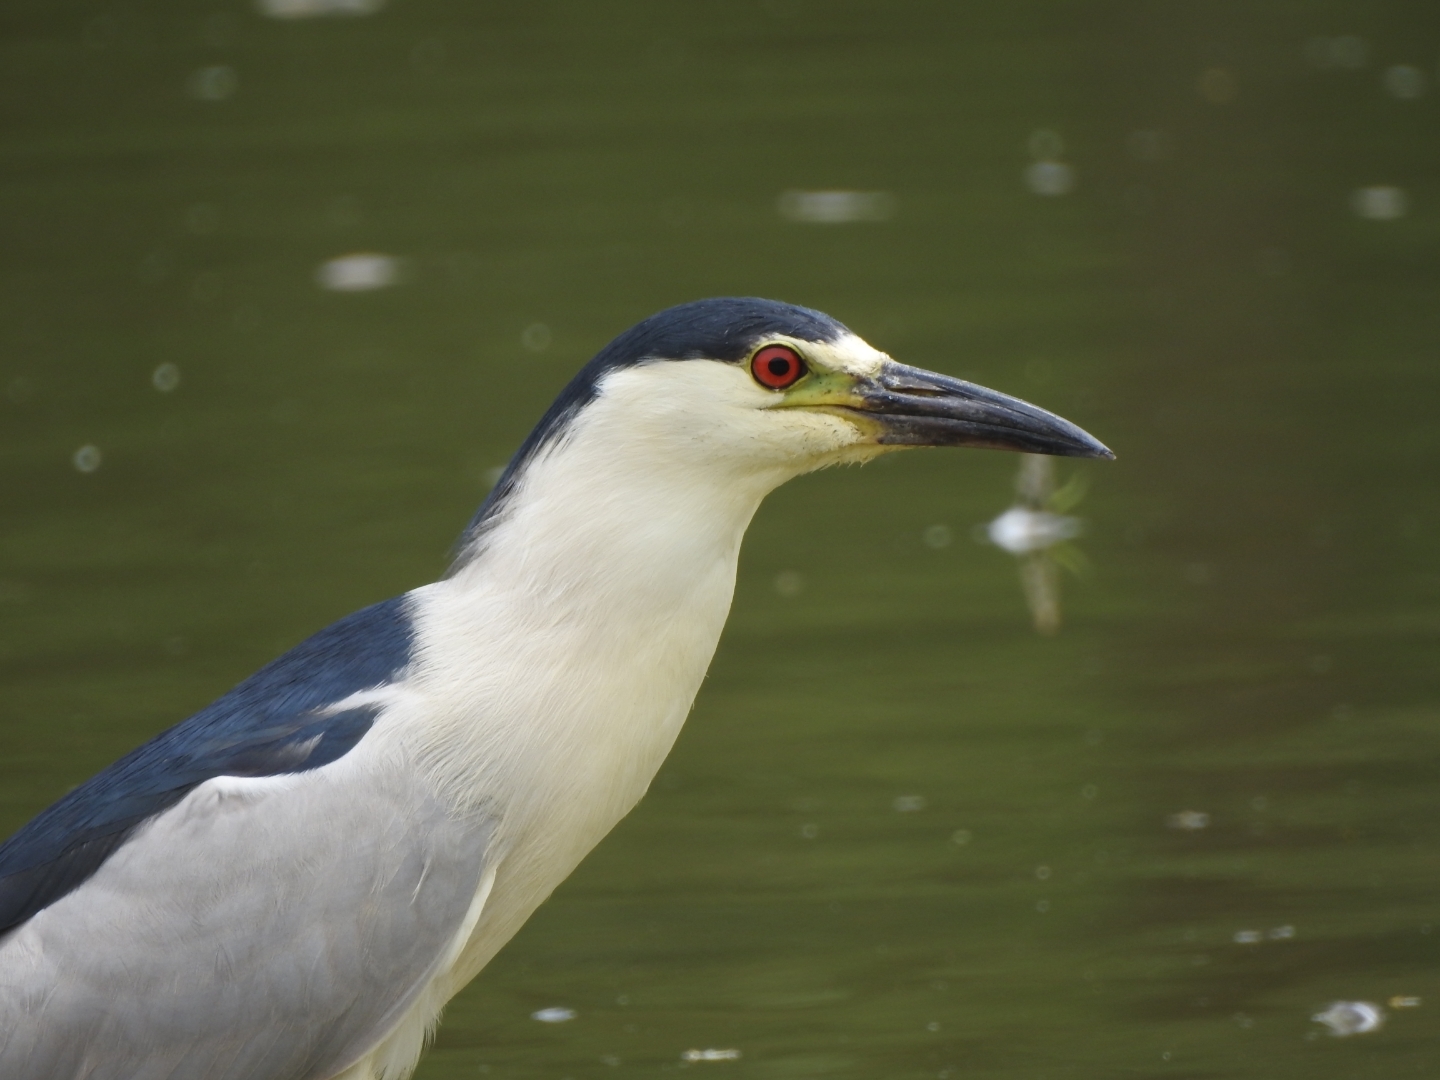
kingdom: Animalia
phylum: Chordata
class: Aves
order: Pelecaniformes
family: Ardeidae
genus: Nycticorax
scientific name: Nycticorax nycticorax
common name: Black-crowned night heron
